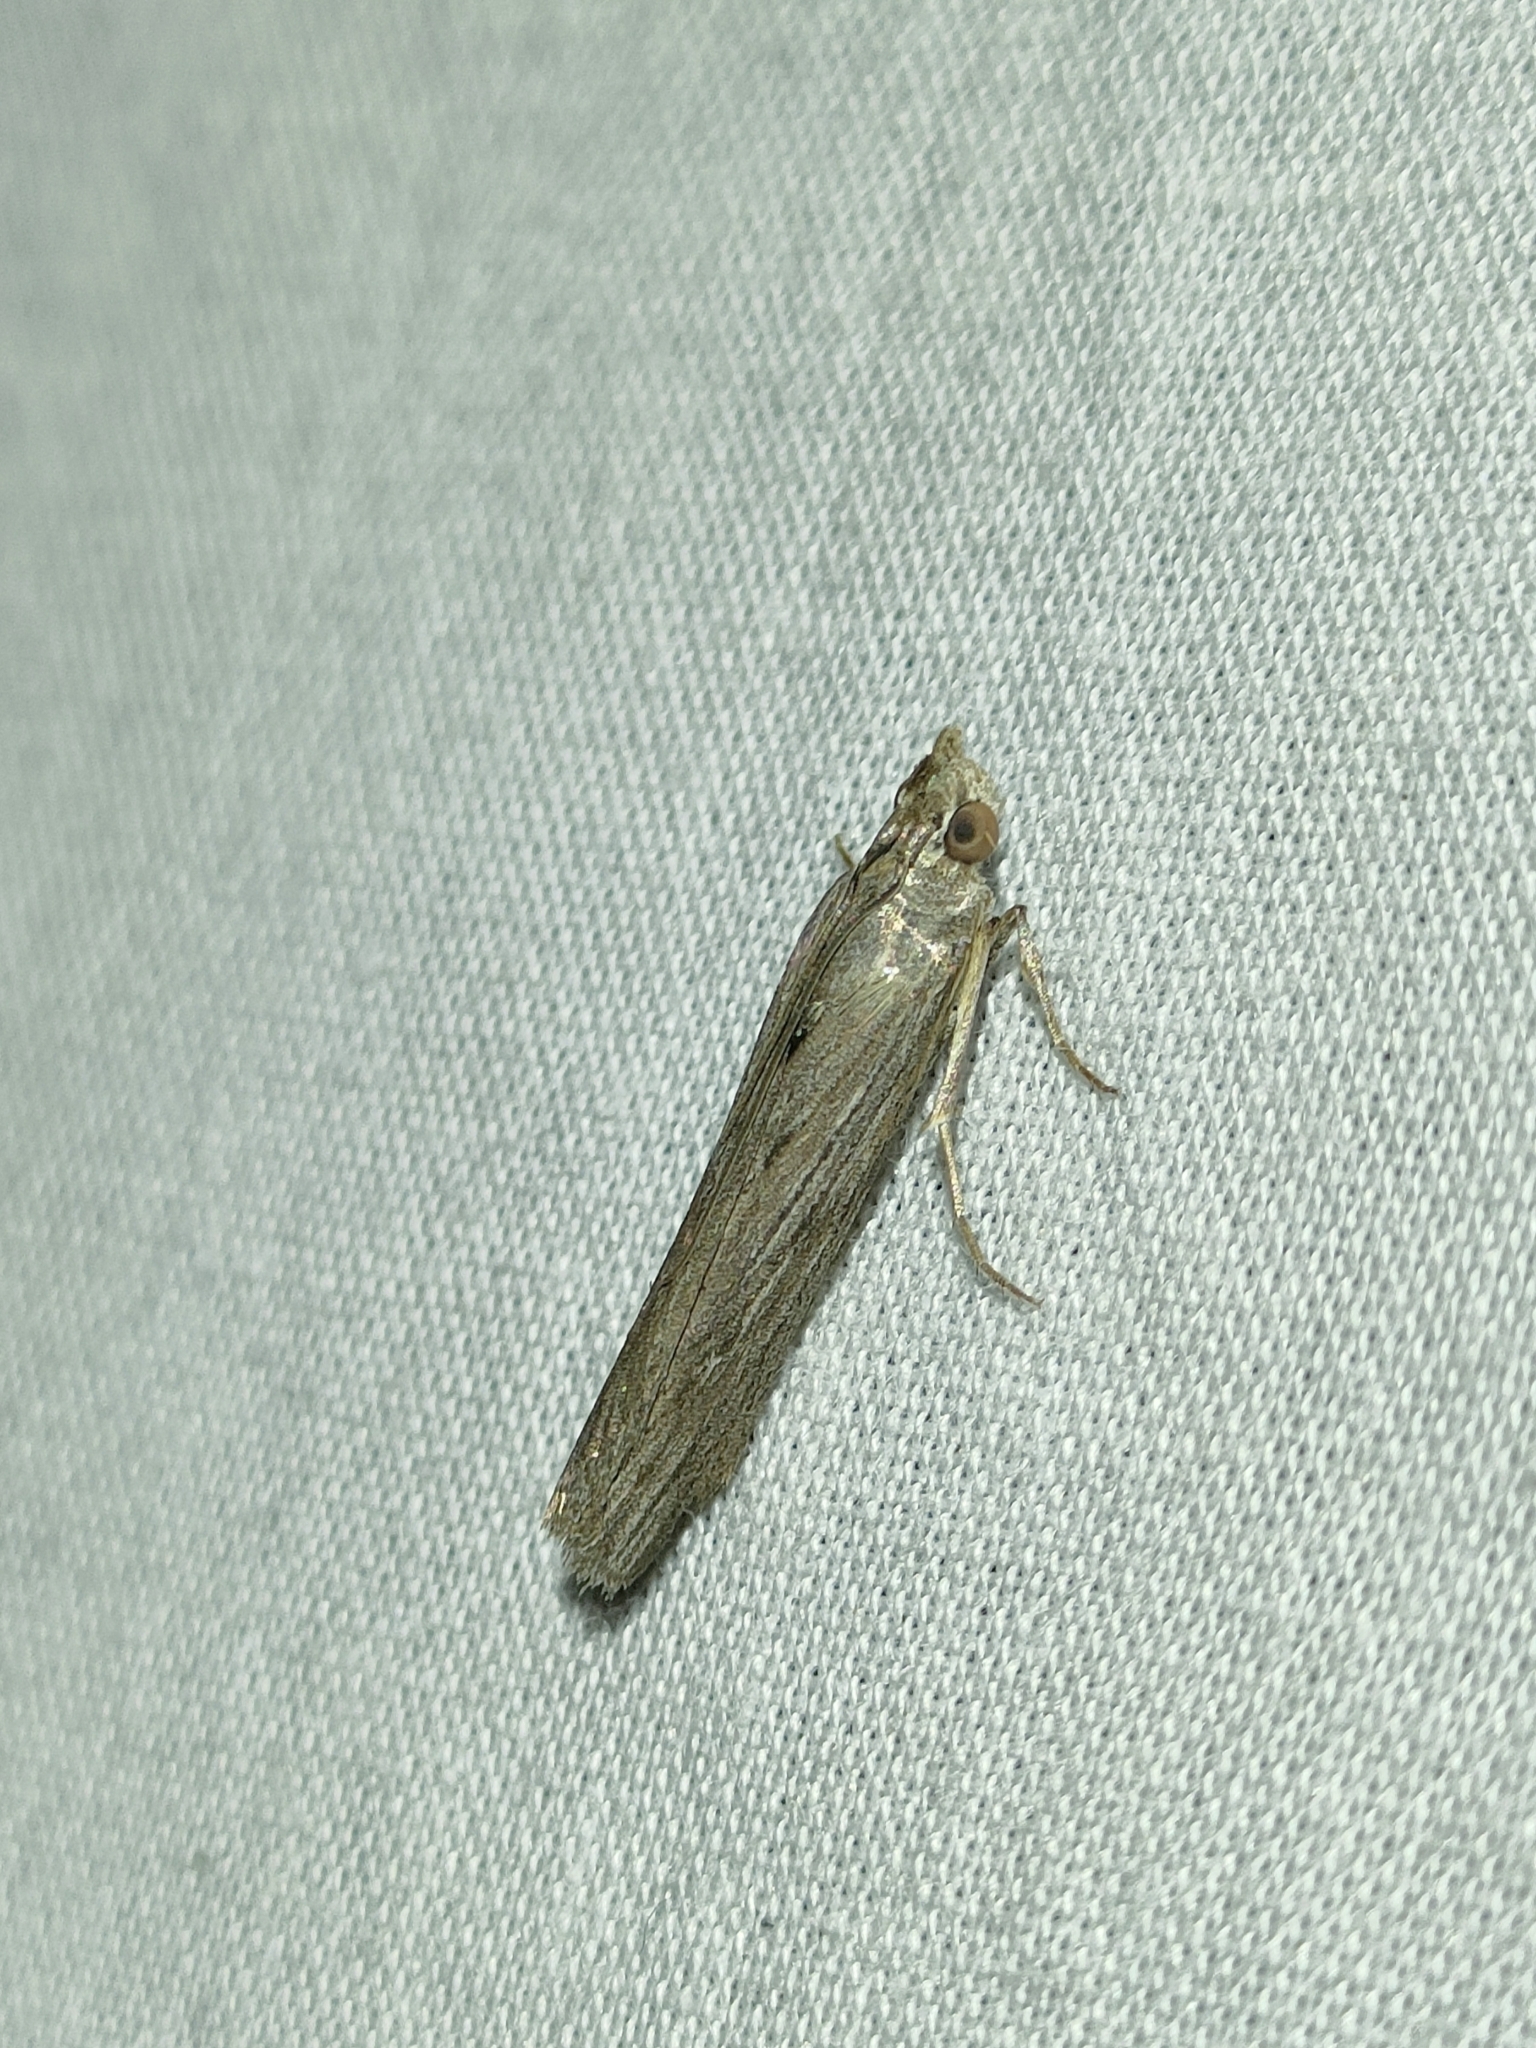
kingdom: Animalia
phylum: Arthropoda
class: Insecta
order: Lepidoptera
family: Pyralidae
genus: Epischnia
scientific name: Epischnia prodromella
